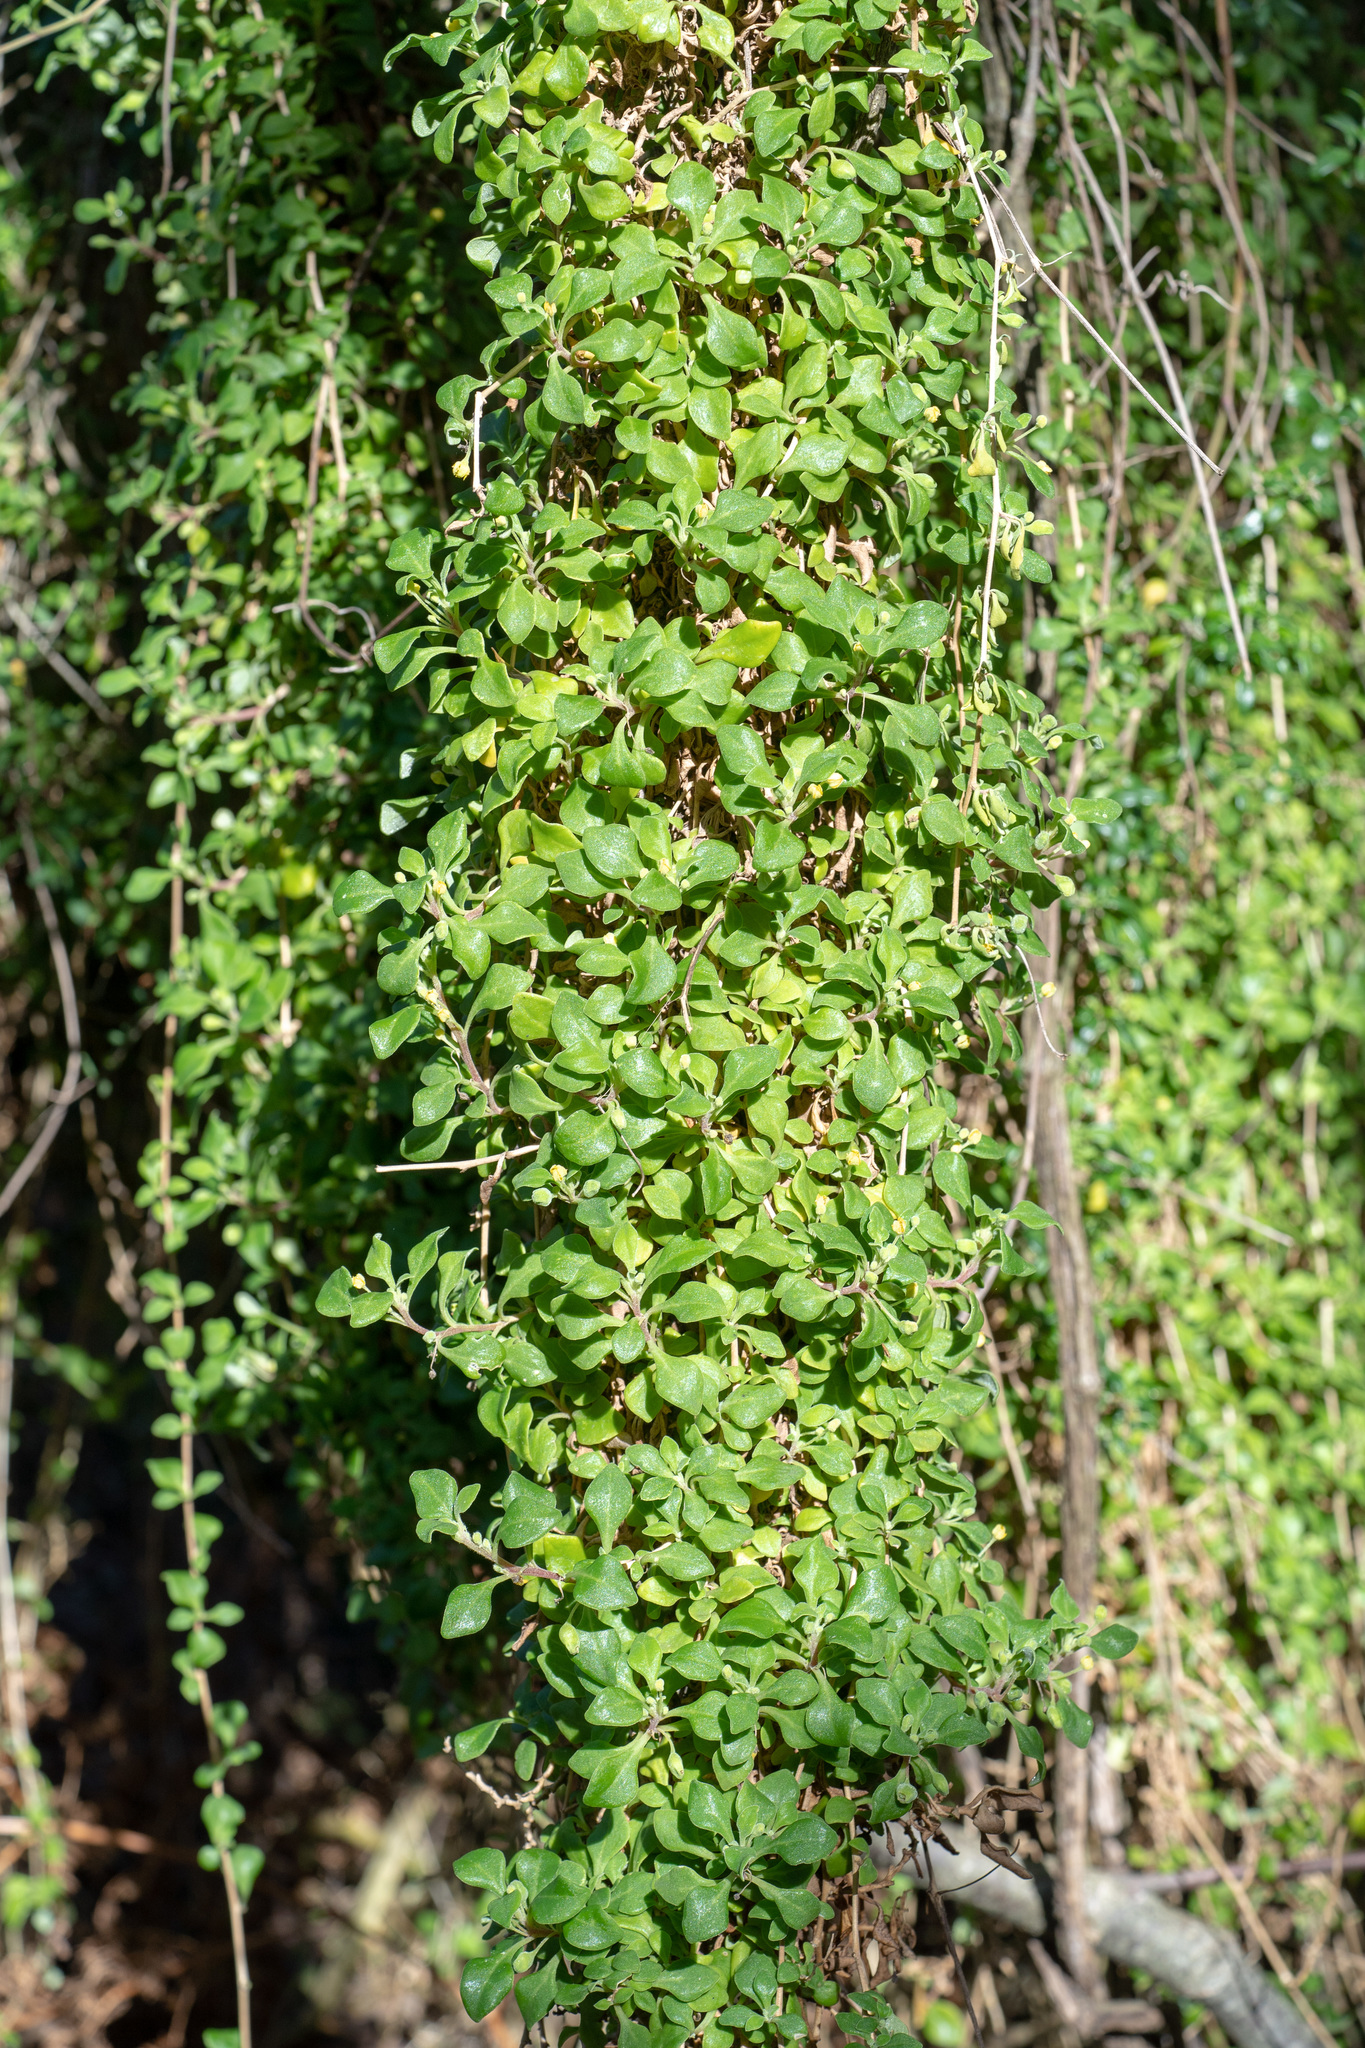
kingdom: Plantae
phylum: Tracheophyta
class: Magnoliopsida
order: Caryophyllales
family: Aizoaceae
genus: Tetragonia
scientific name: Tetragonia implexicoma
